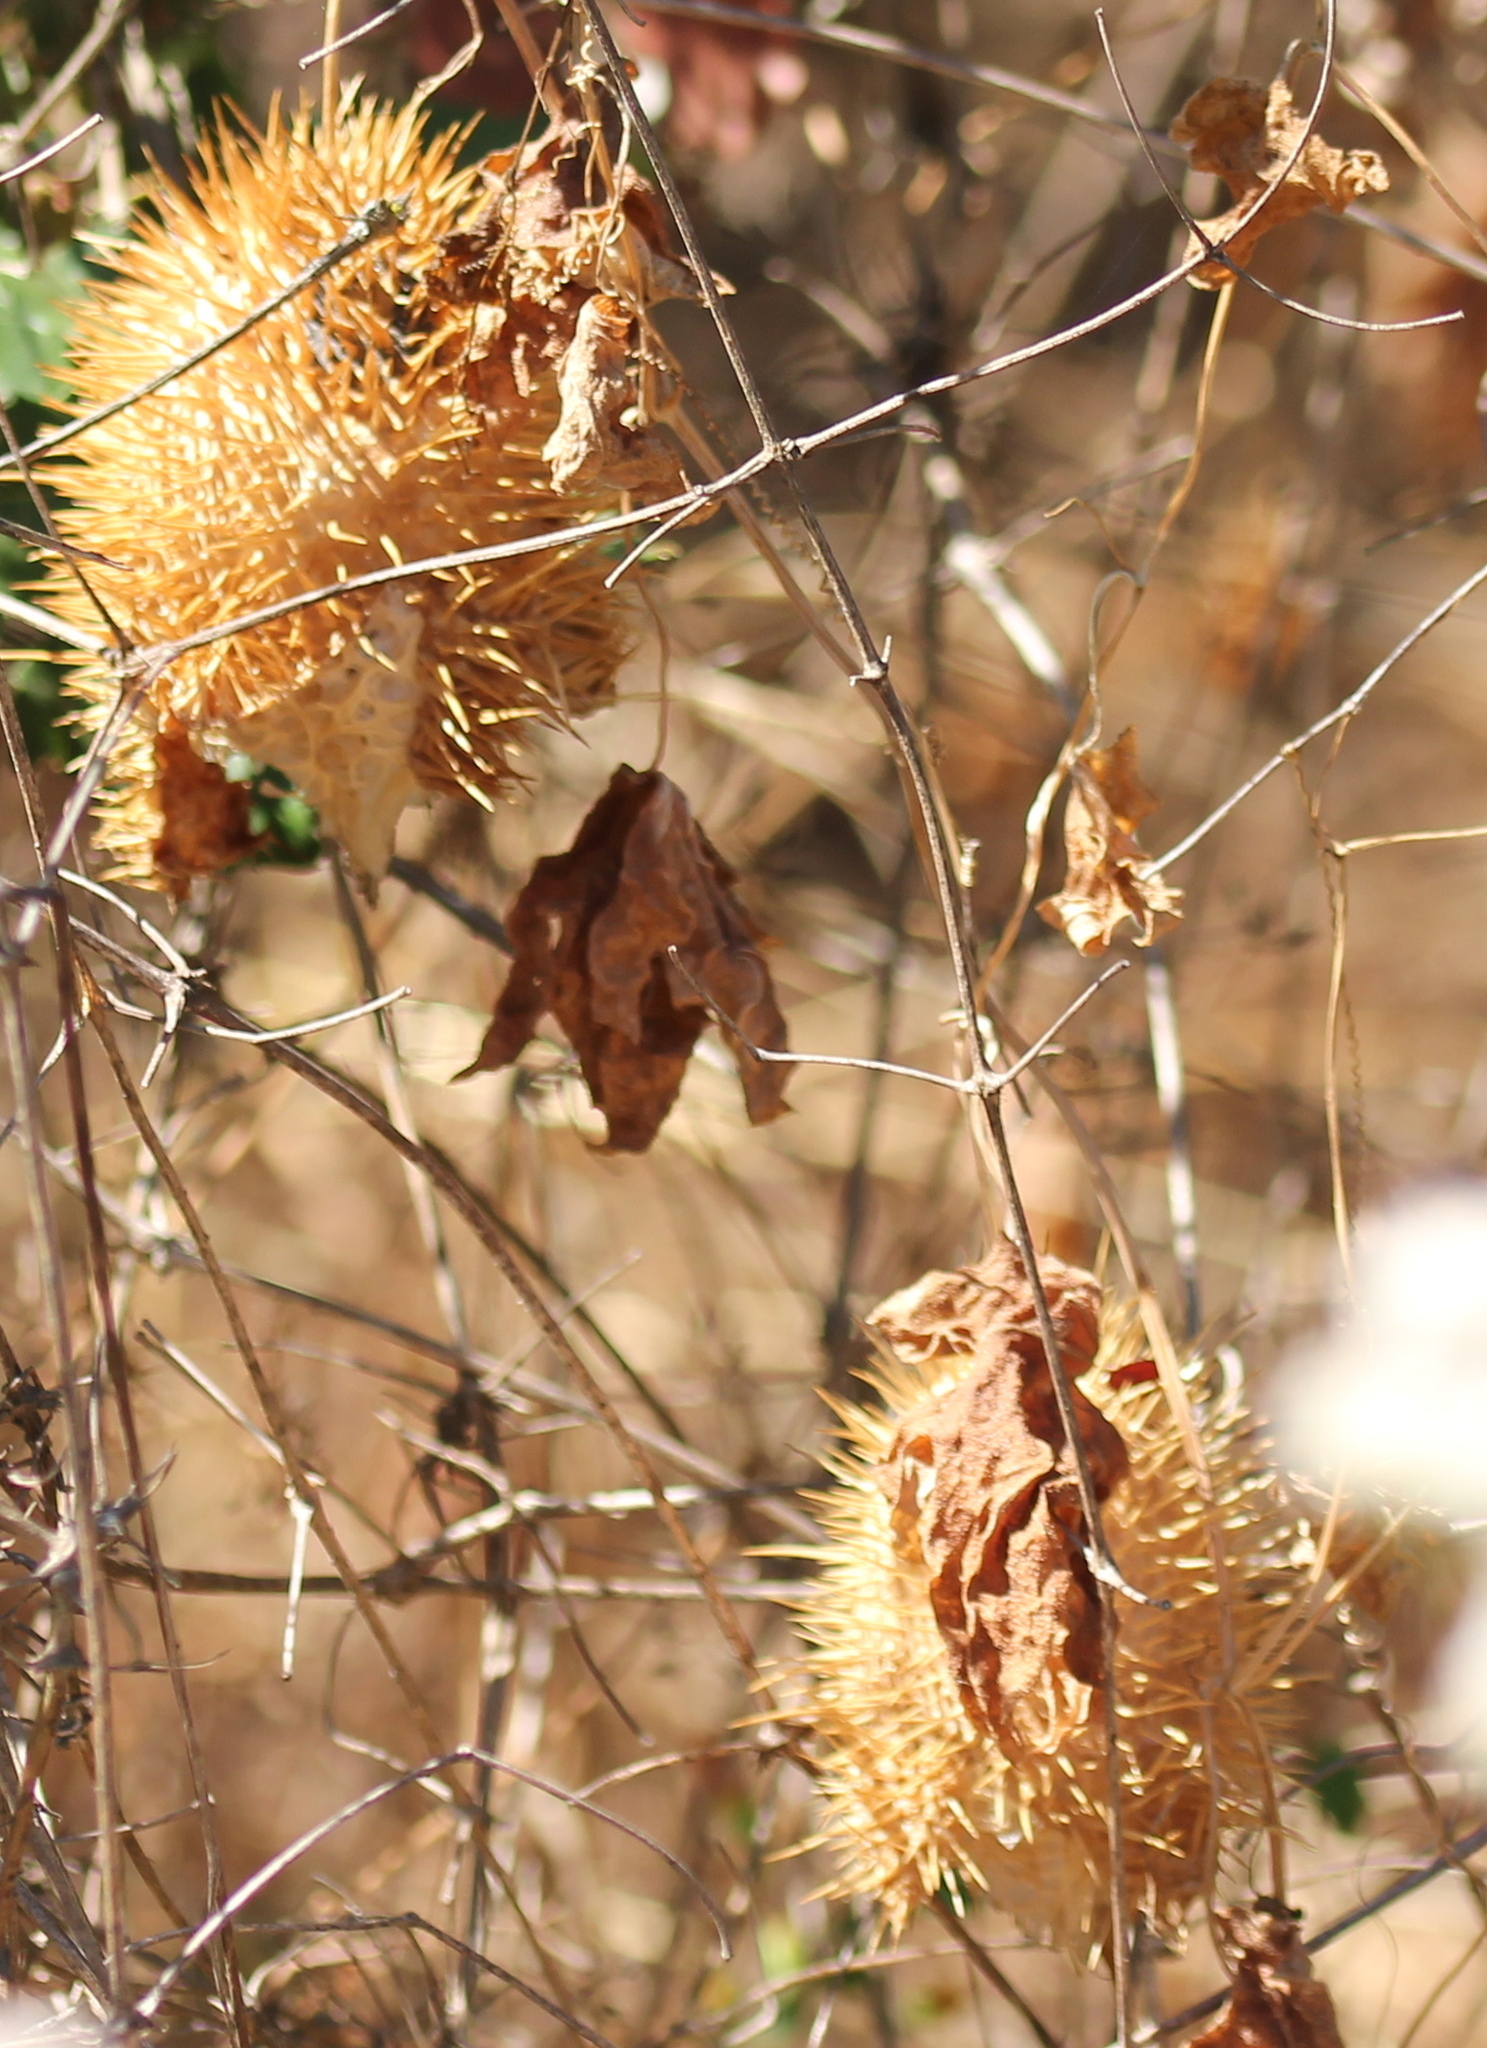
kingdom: Plantae
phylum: Tracheophyta
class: Magnoliopsida
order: Cucurbitales
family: Cucurbitaceae
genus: Marah
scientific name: Marah macrocarpa
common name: Cucamonga manroot
